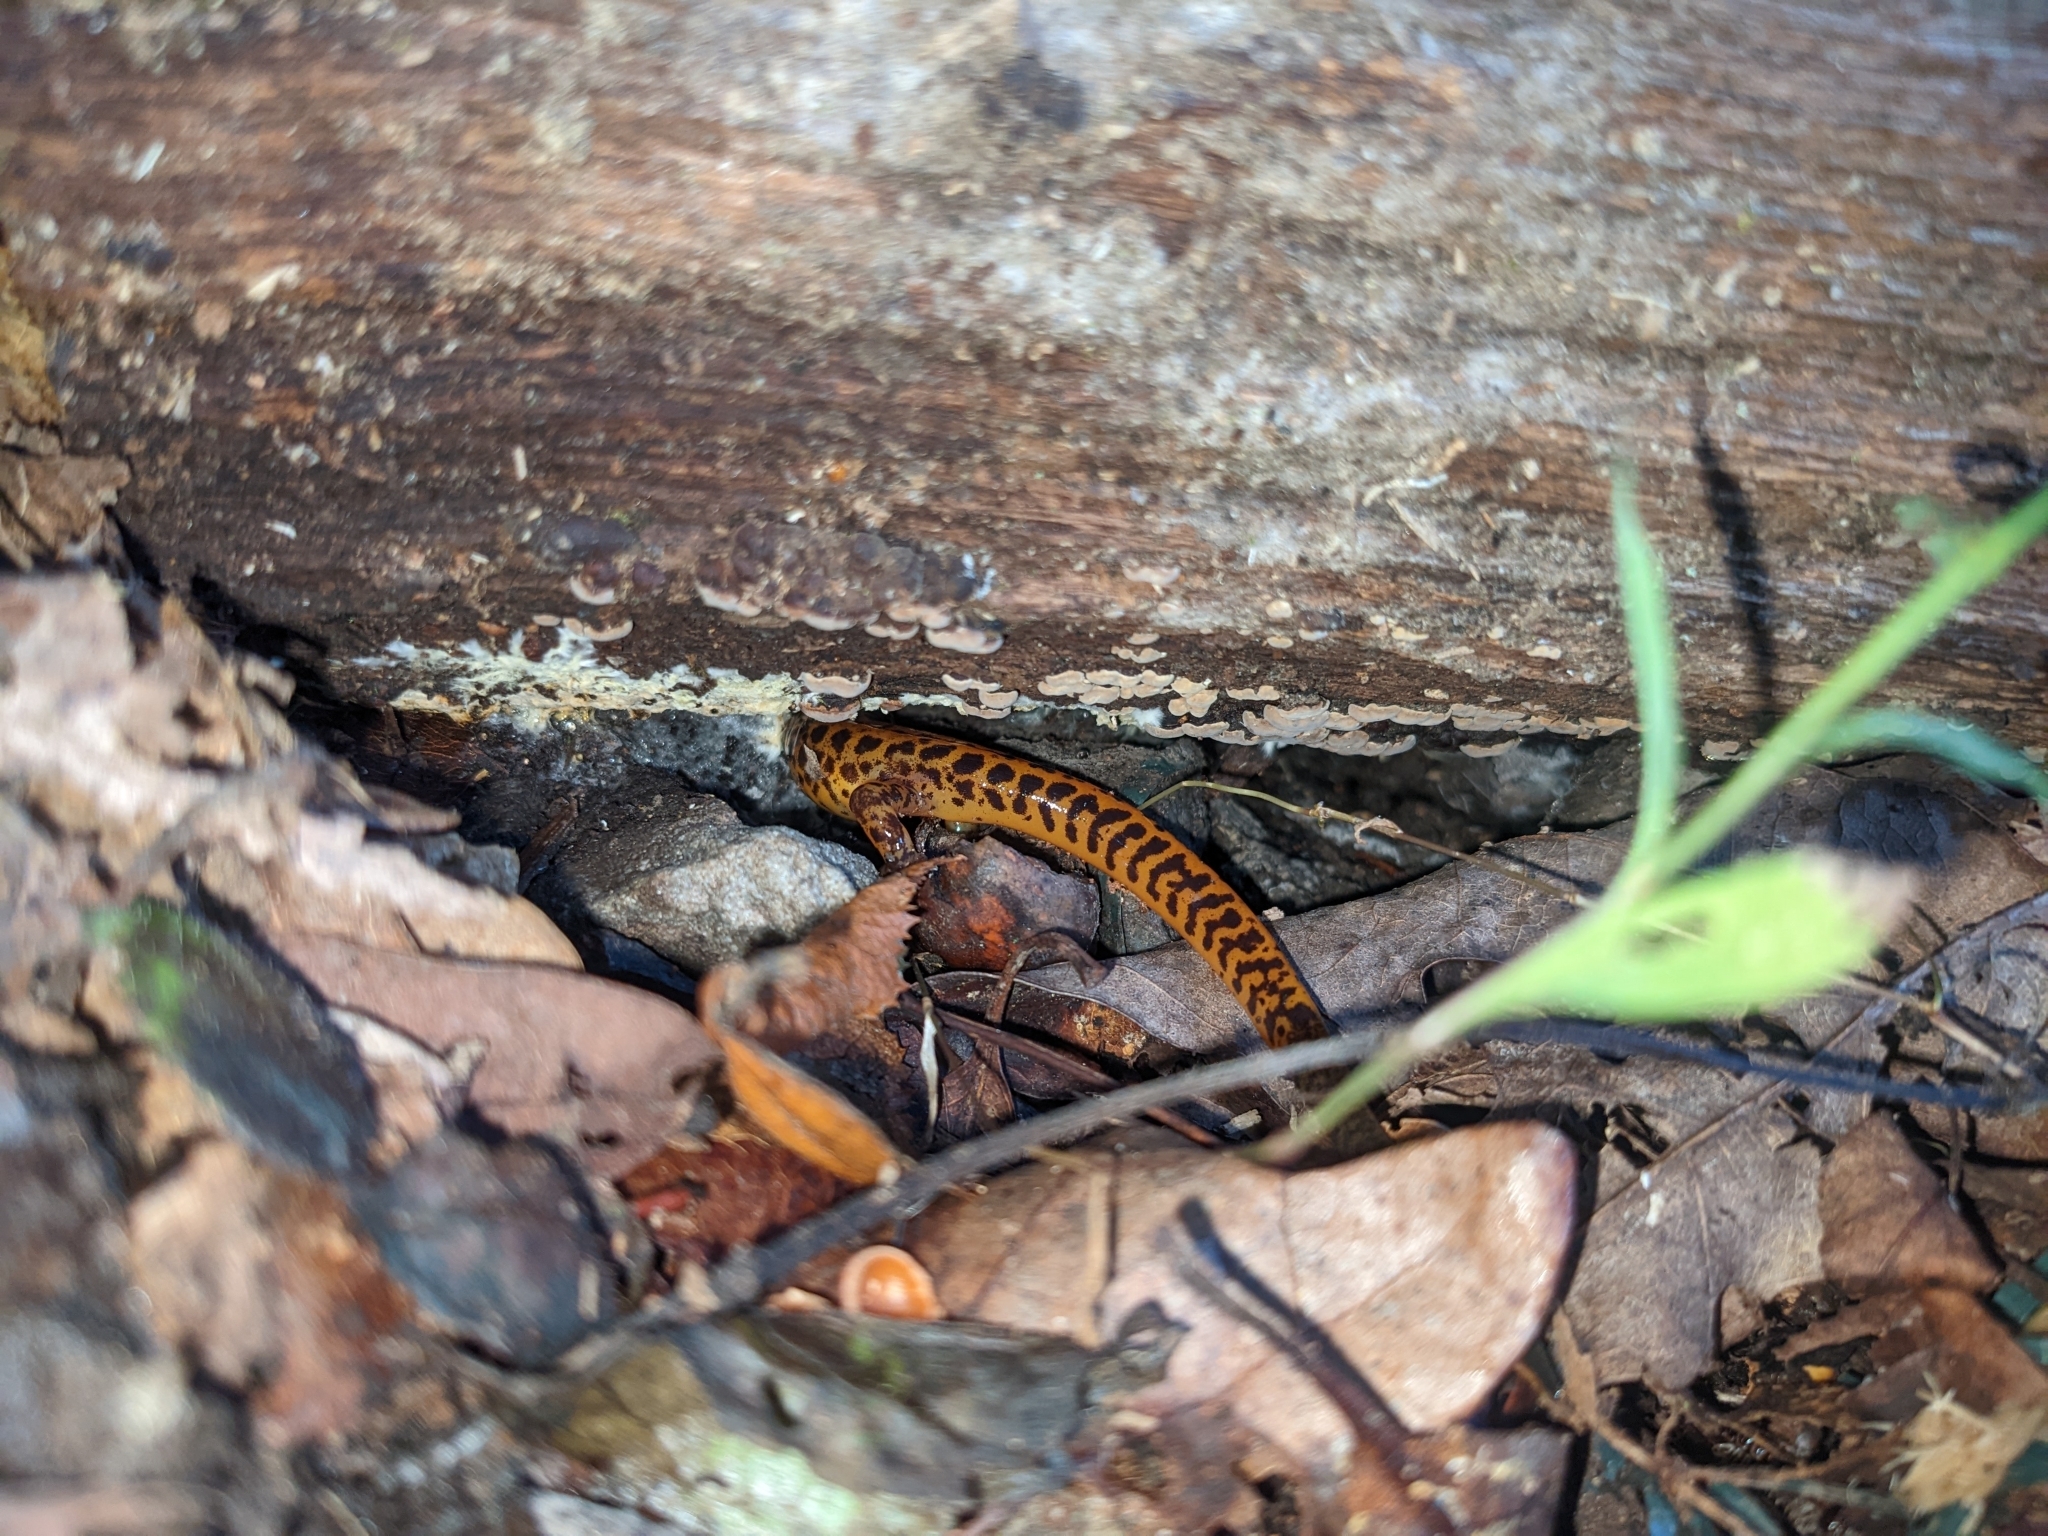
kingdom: Animalia
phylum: Chordata
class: Amphibia
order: Caudata
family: Plethodontidae
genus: Eurycea
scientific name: Eurycea longicauda
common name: Long-tailed salamander
